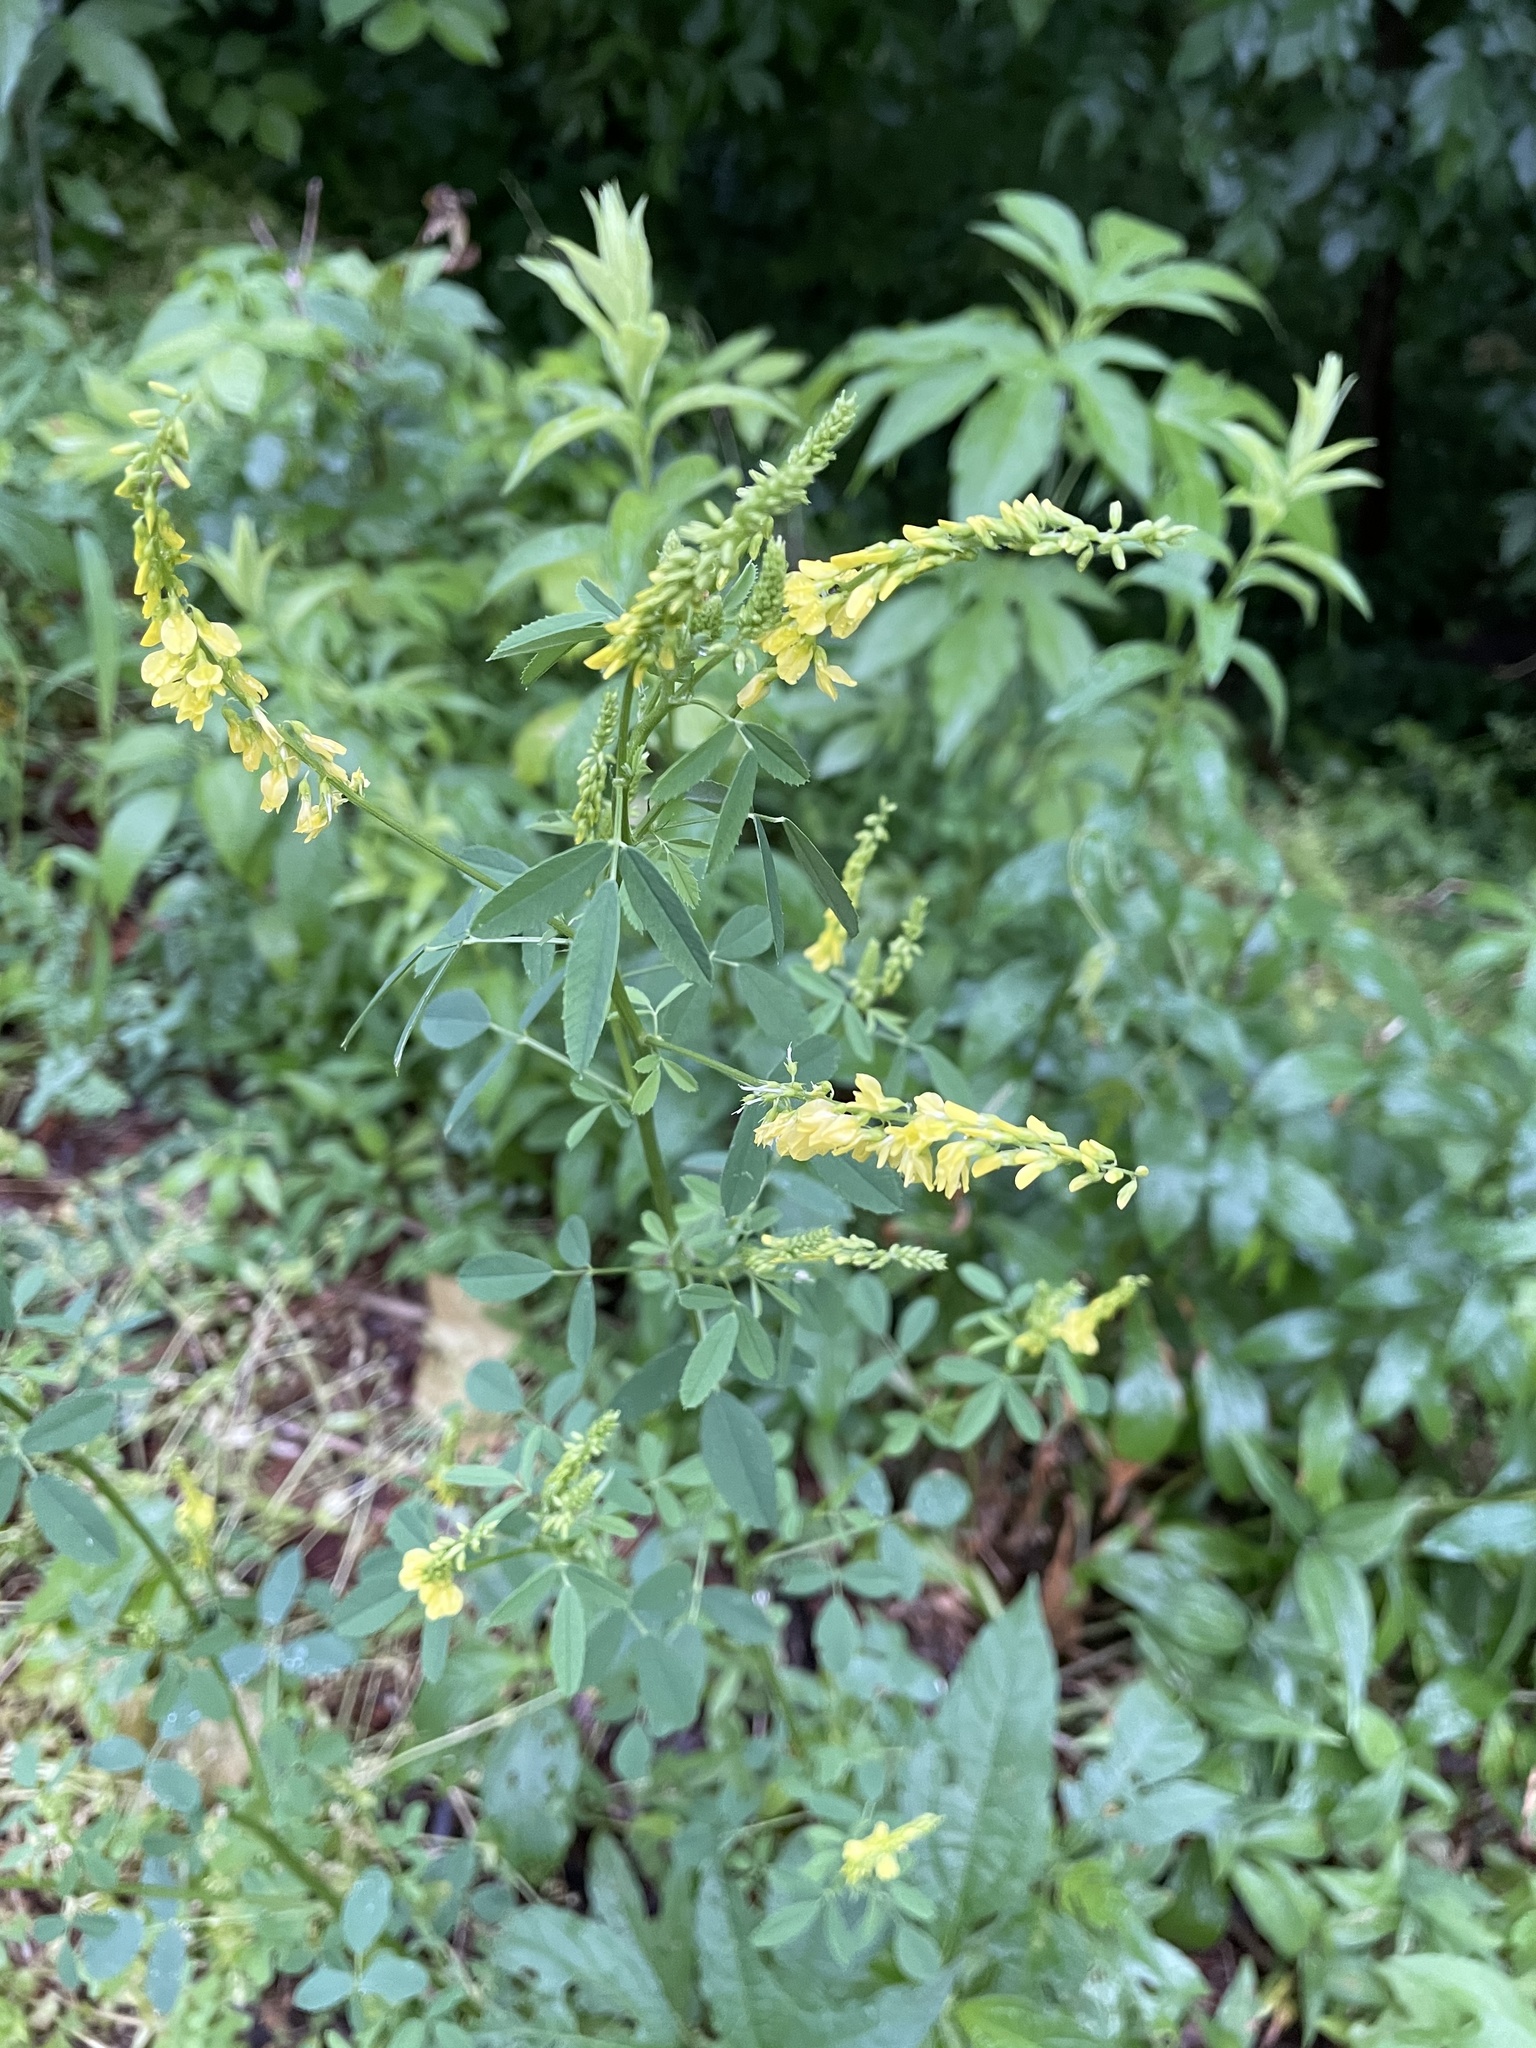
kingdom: Plantae
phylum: Tracheophyta
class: Magnoliopsida
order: Fabales
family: Fabaceae
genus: Melilotus
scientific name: Melilotus officinalis
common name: Sweetclover
